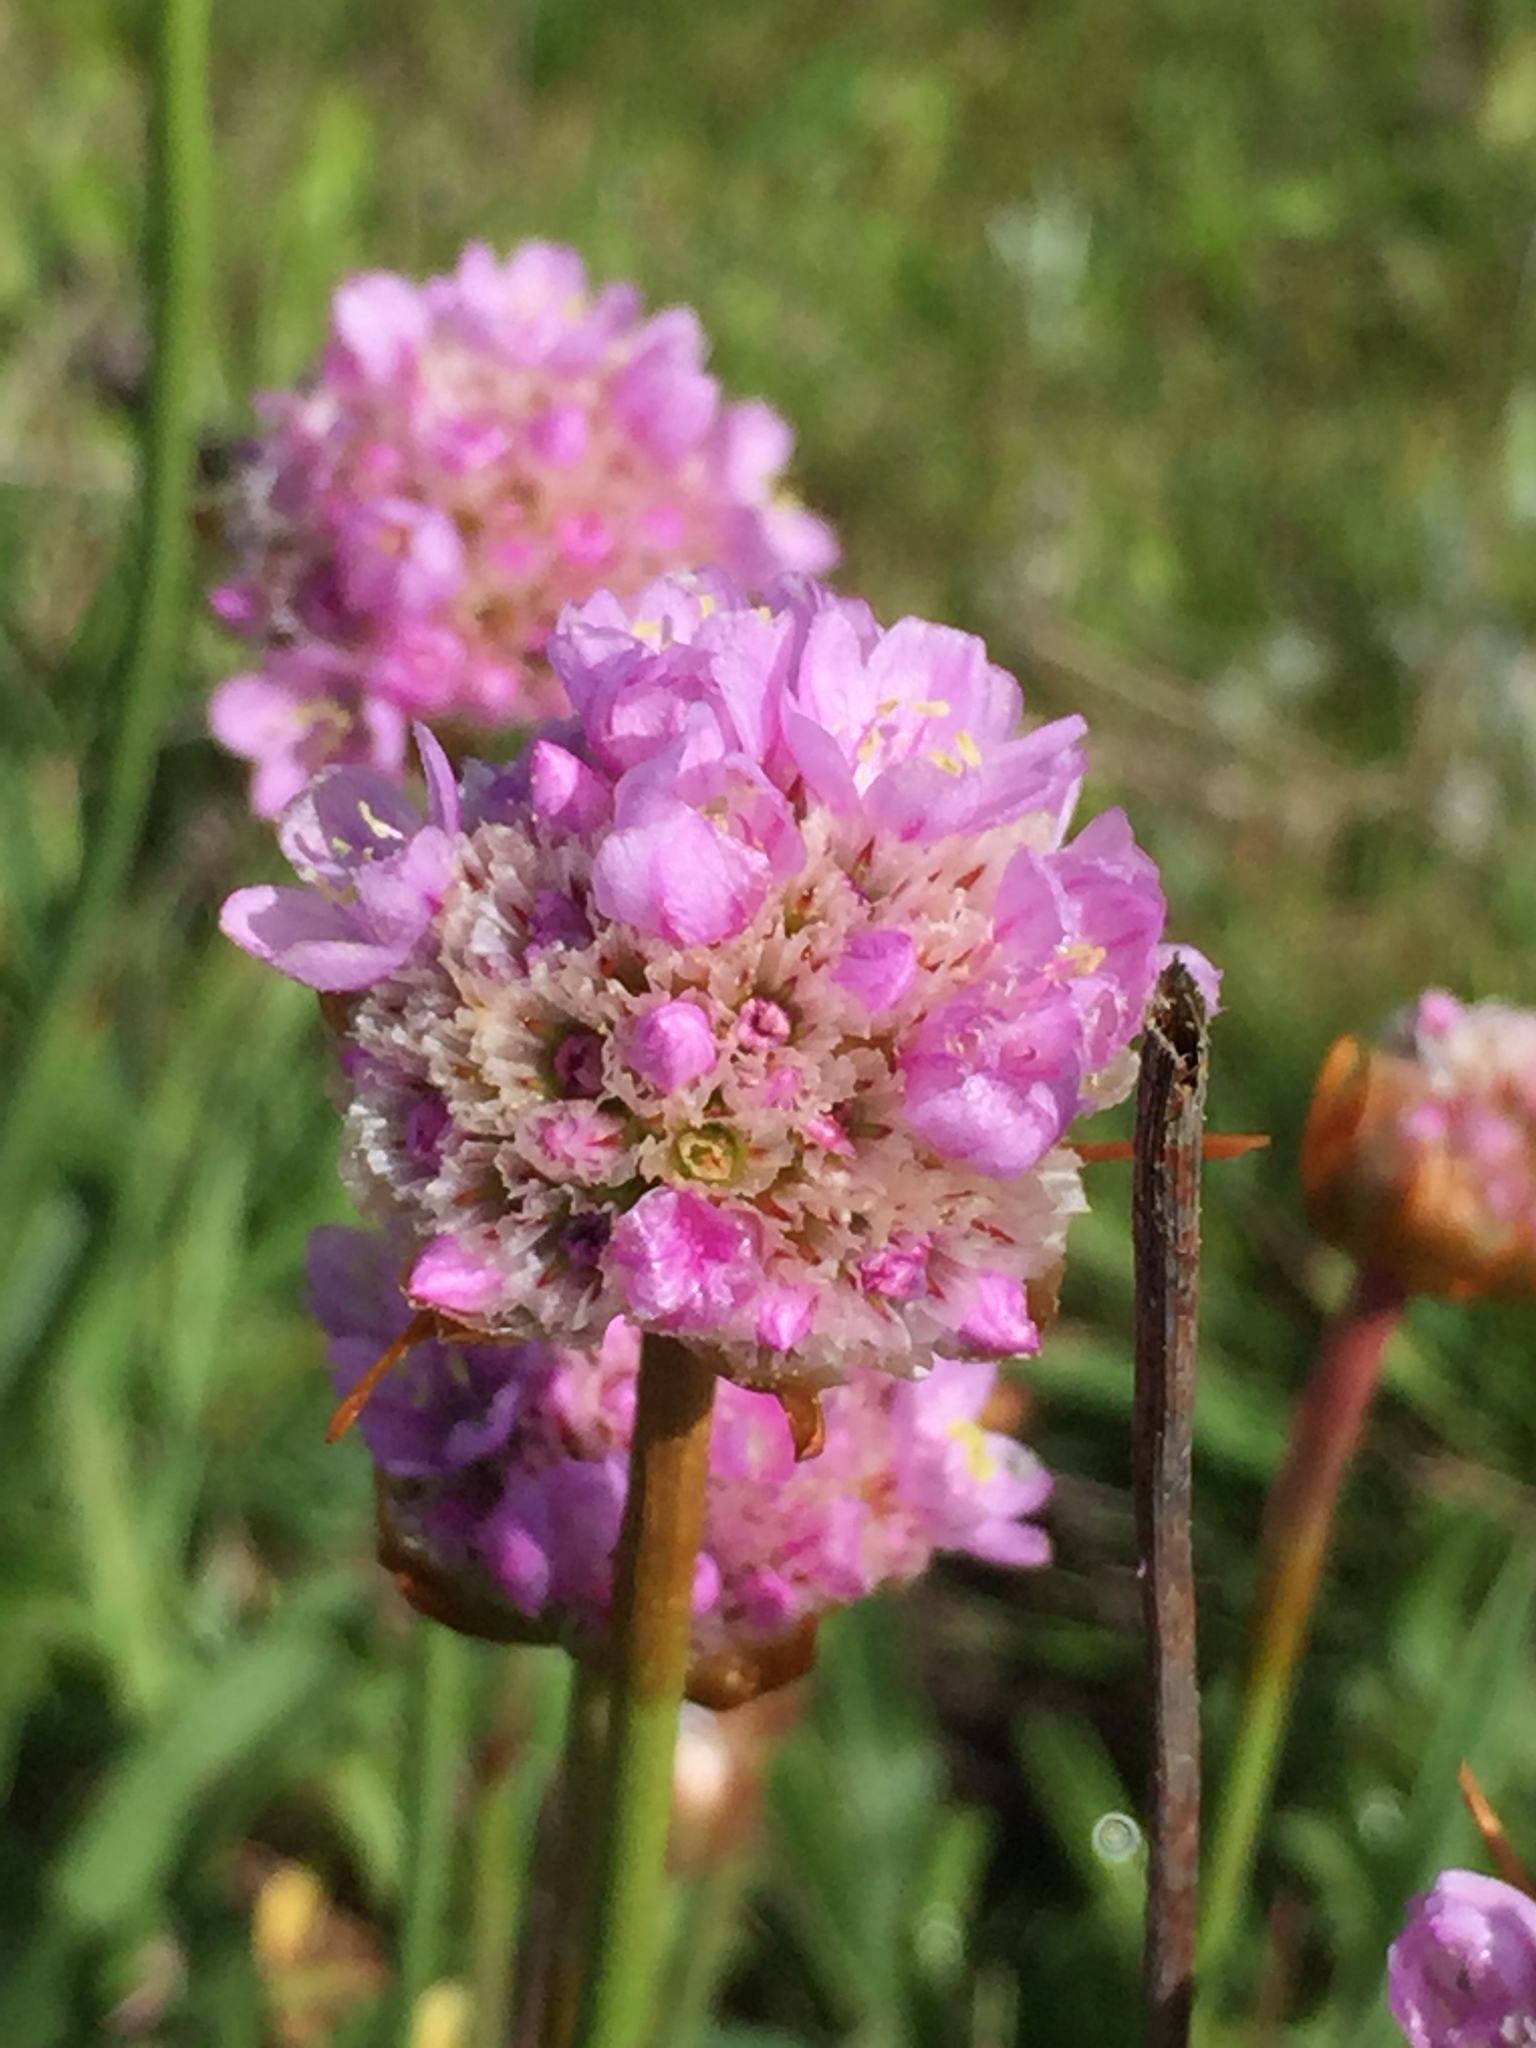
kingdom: Plantae
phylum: Tracheophyta
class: Magnoliopsida
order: Caryophyllales
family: Plumbaginaceae
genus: Armeria
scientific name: Armeria maritima
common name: Thrift
